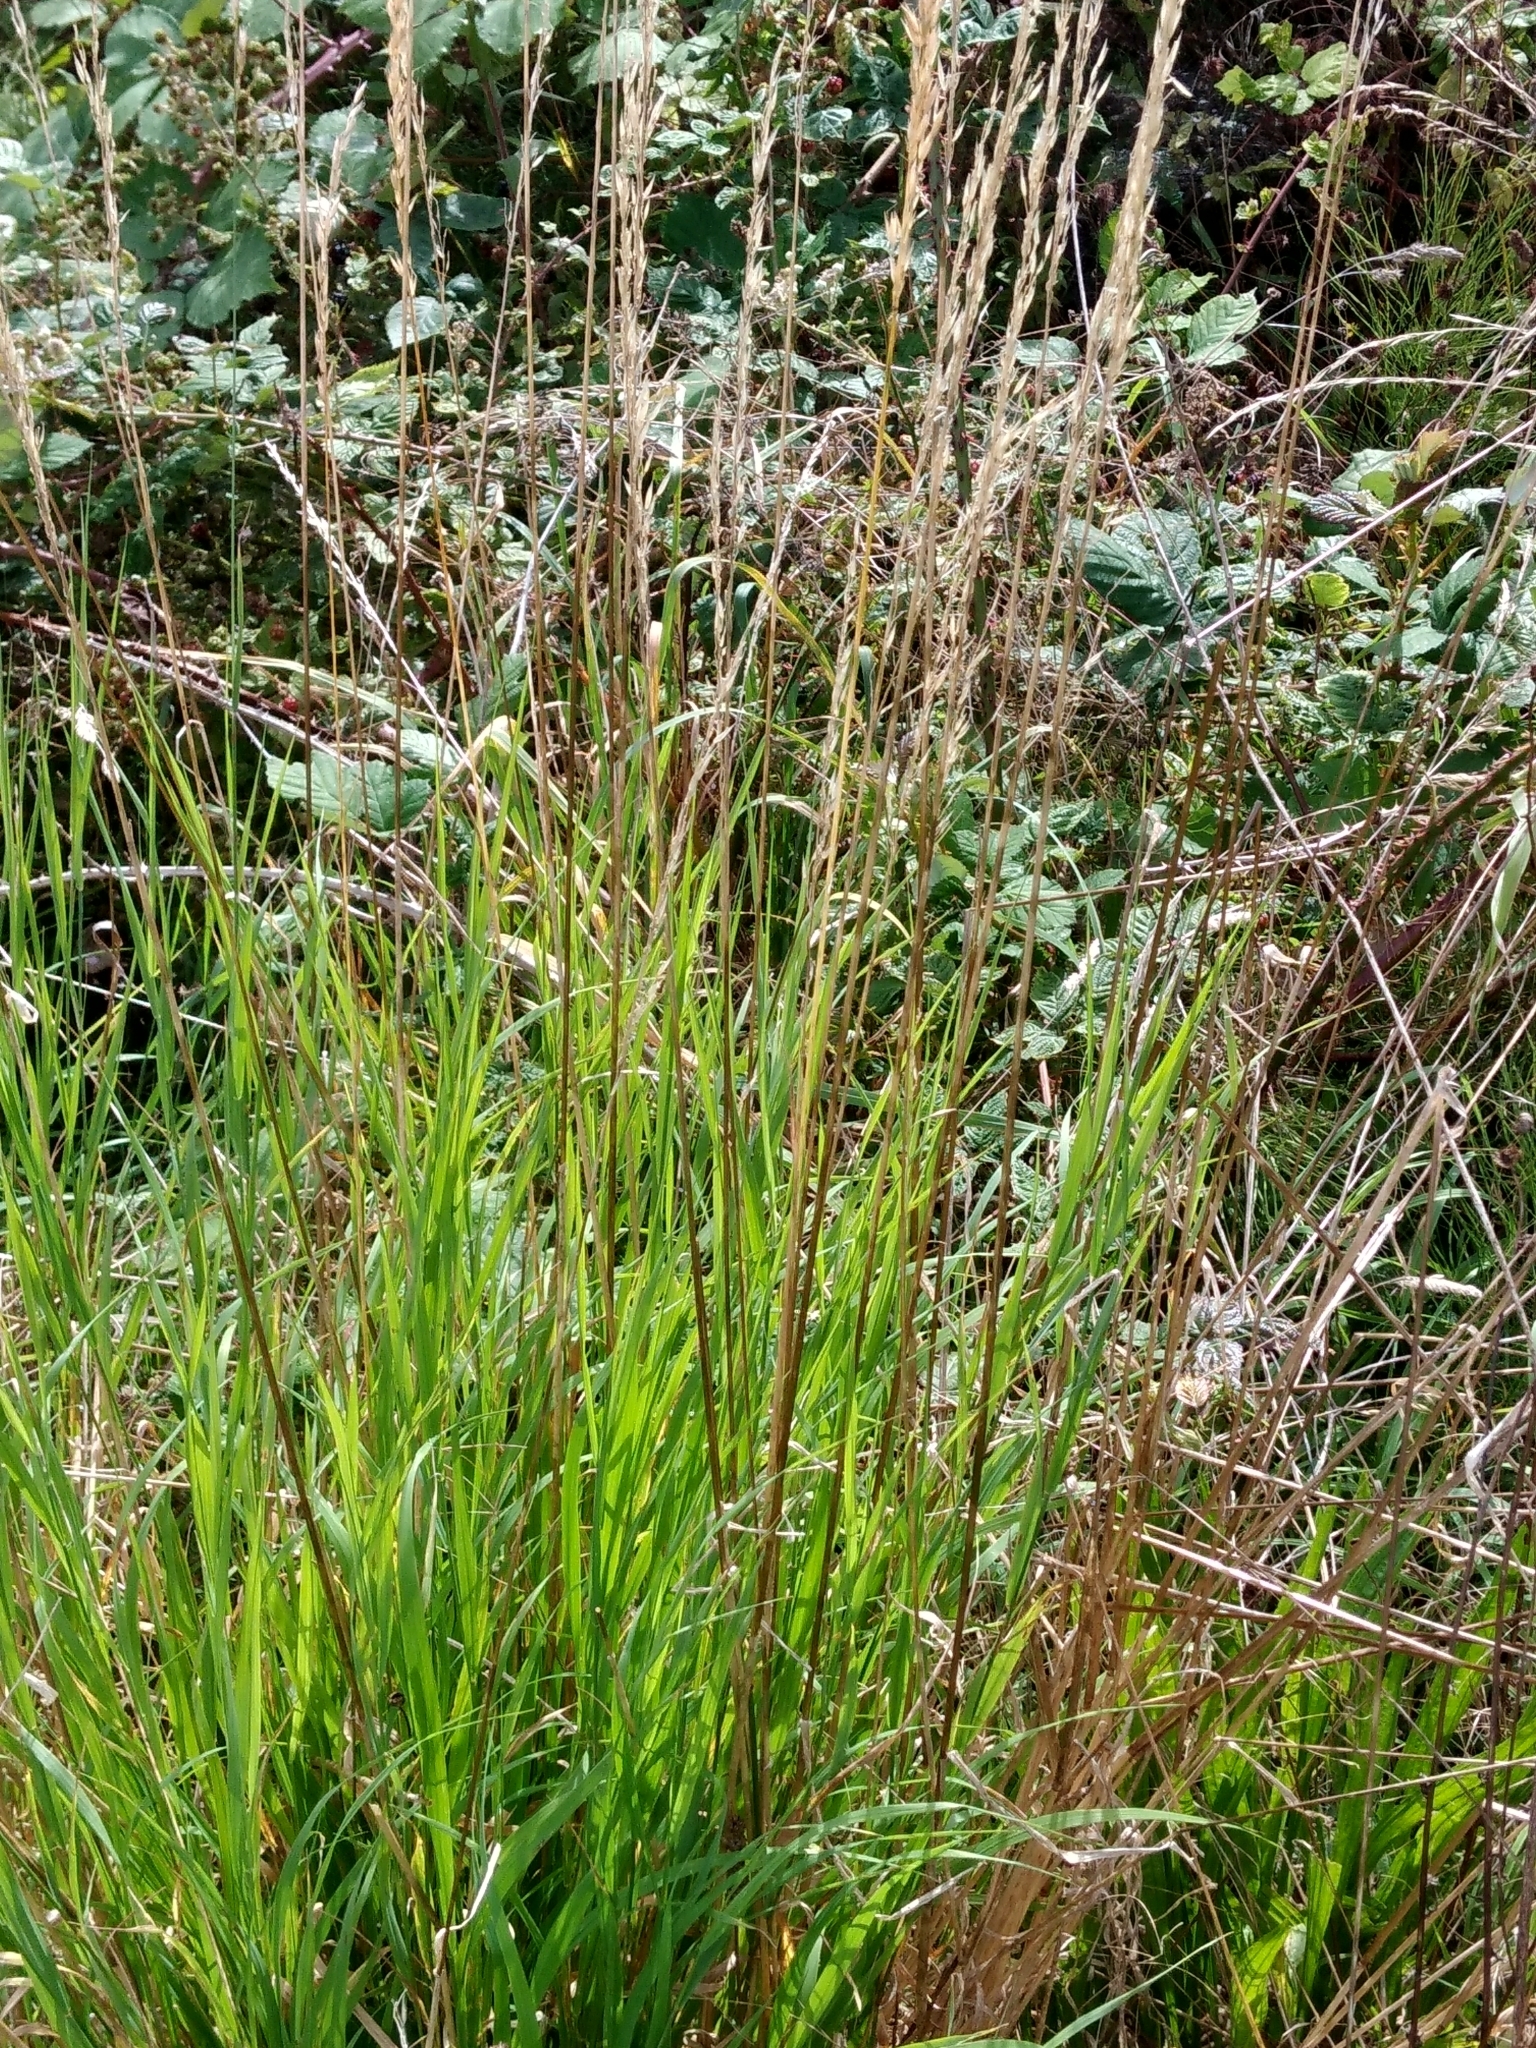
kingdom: Plantae
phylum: Tracheophyta
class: Liliopsida
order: Poales
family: Poaceae
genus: Arrhenatherum
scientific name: Arrhenatherum elatius
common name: Tall oatgrass
